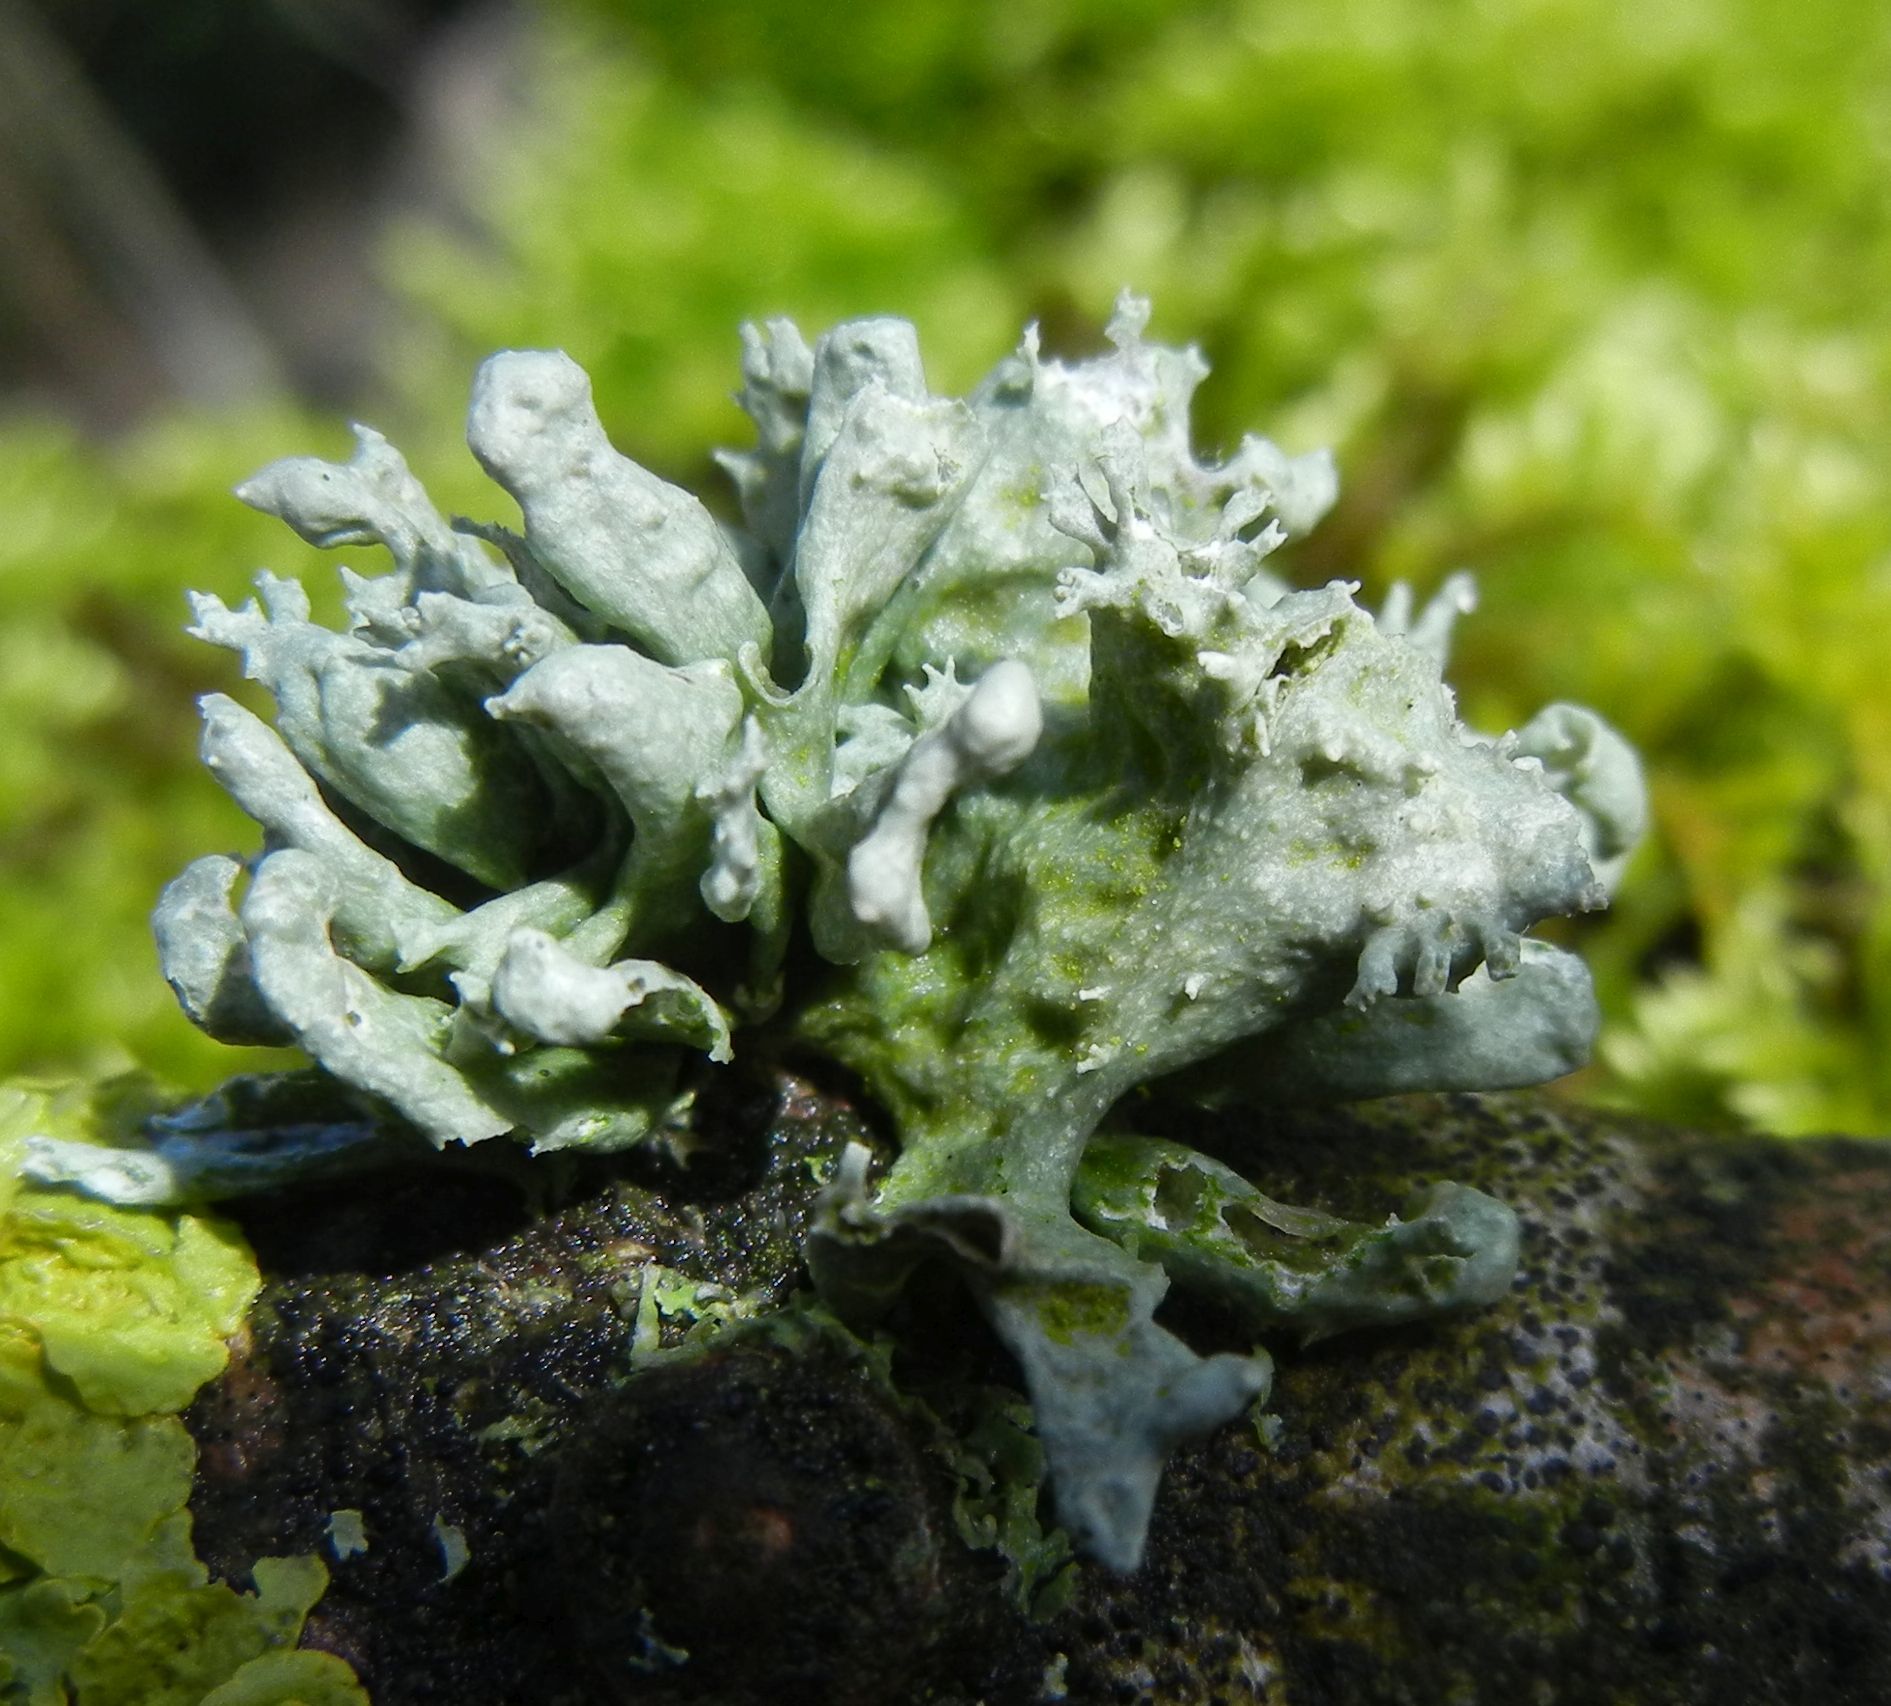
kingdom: Fungi
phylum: Ascomycota
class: Lecanoromycetes
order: Lecanorales
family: Ramalinaceae
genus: Ramalina
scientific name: Ramalina fastigiata
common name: Dotted ribbon lichen
